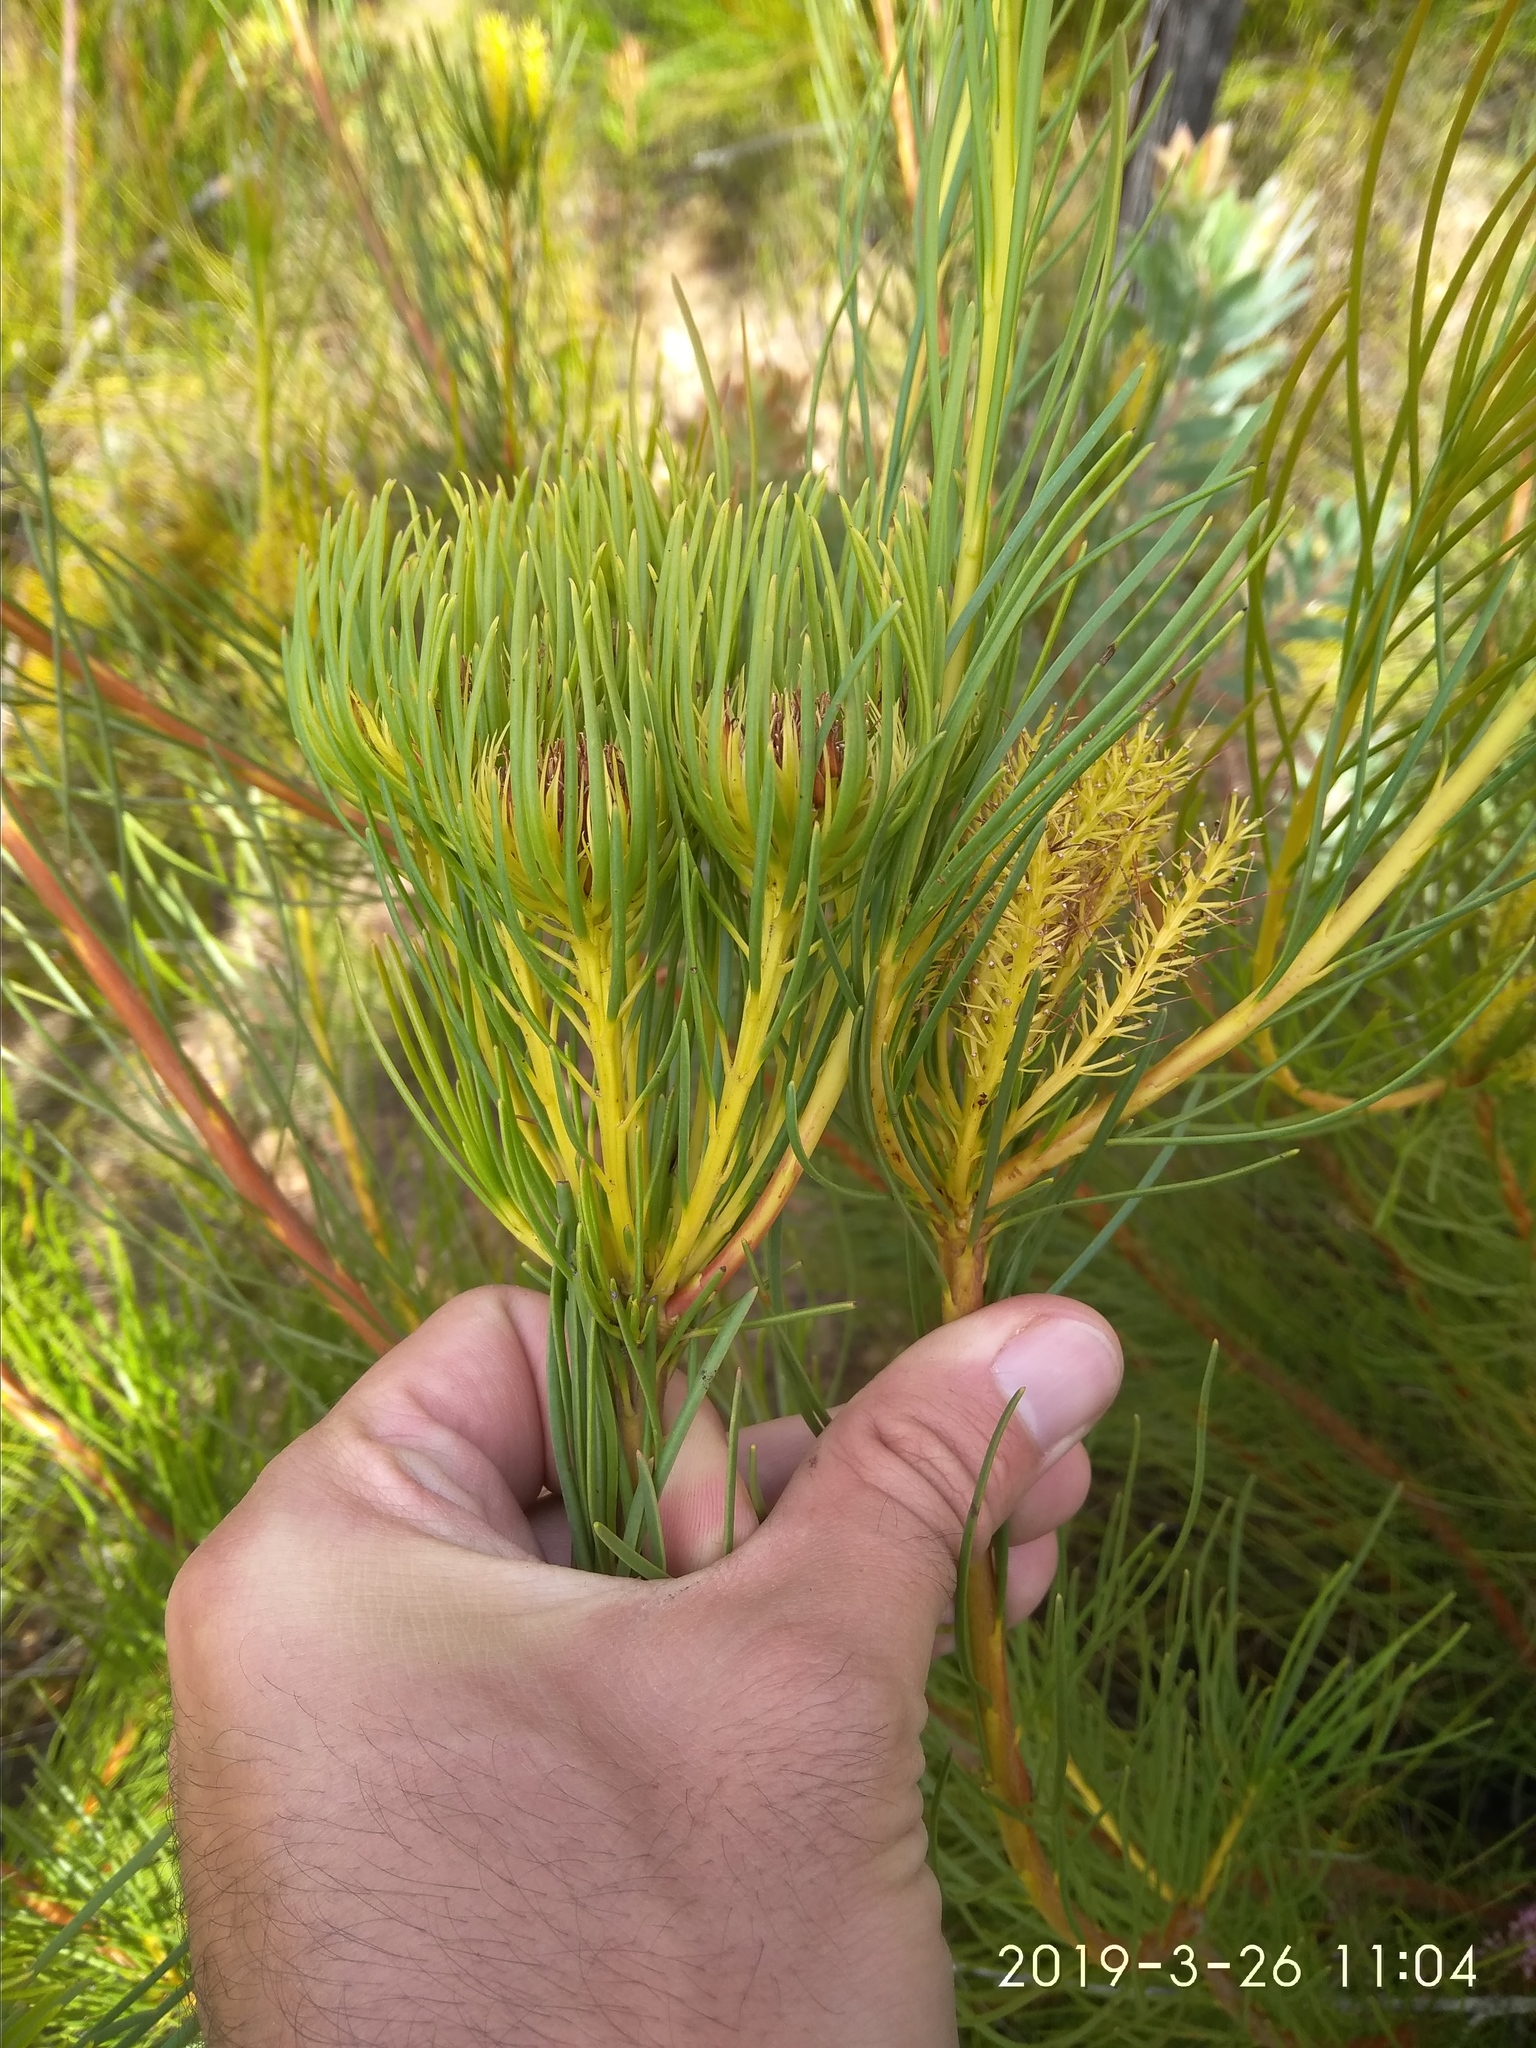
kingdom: Plantae
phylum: Tracheophyta
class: Magnoliopsida
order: Proteales
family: Proteaceae
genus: Aulax
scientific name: Aulax pallasia
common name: Needle-leaf featherbush
